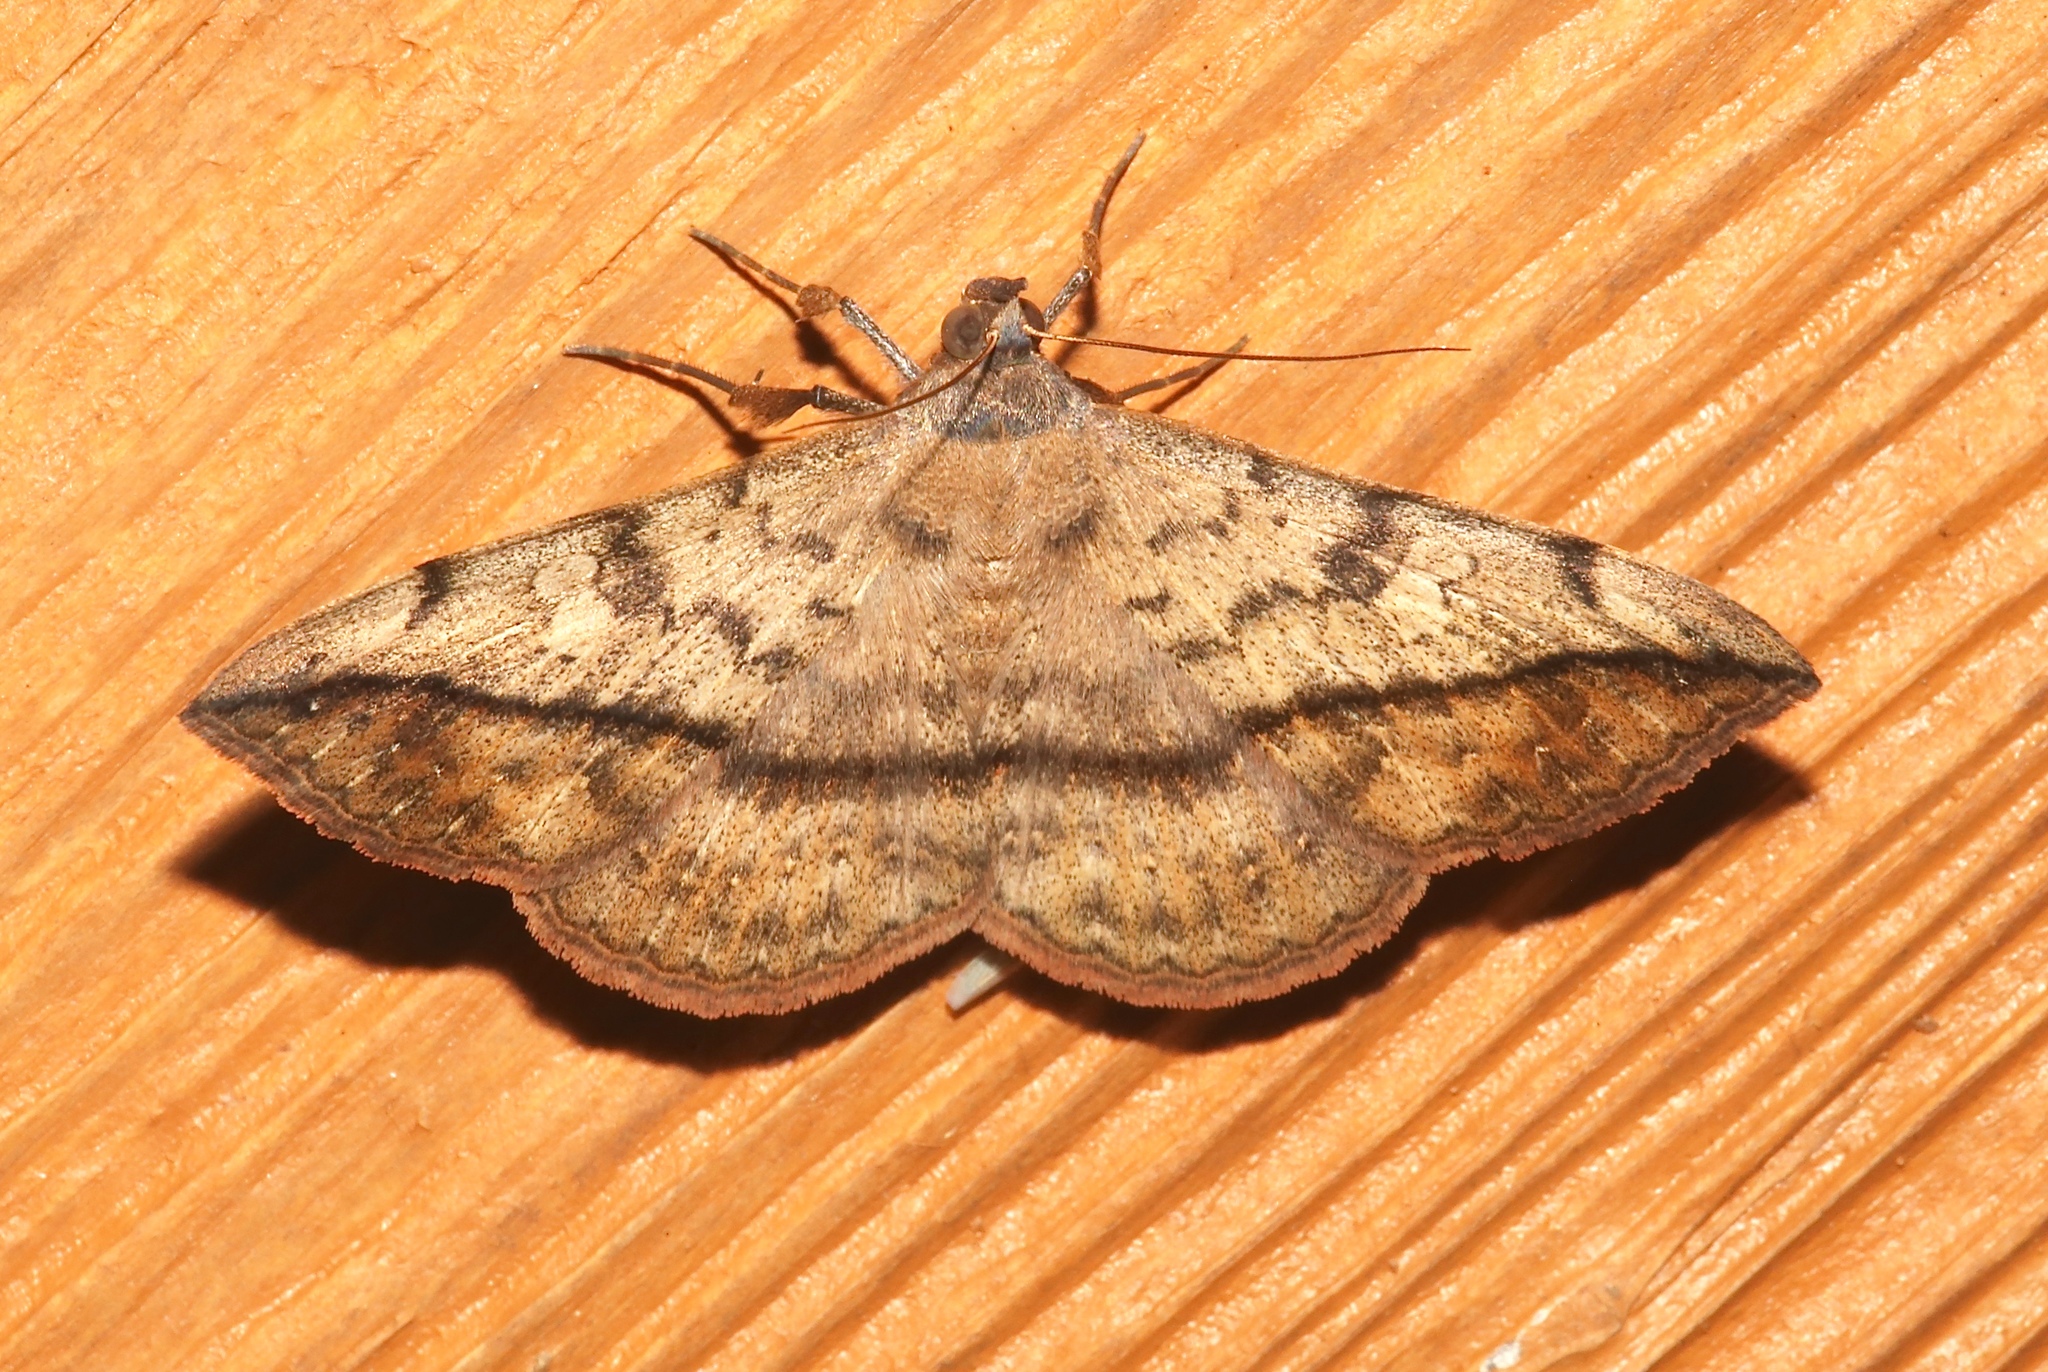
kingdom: Animalia
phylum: Arthropoda
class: Insecta
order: Lepidoptera
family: Erebidae
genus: Anticarsia
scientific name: Anticarsia gemmatalis
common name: Cutworm moth
